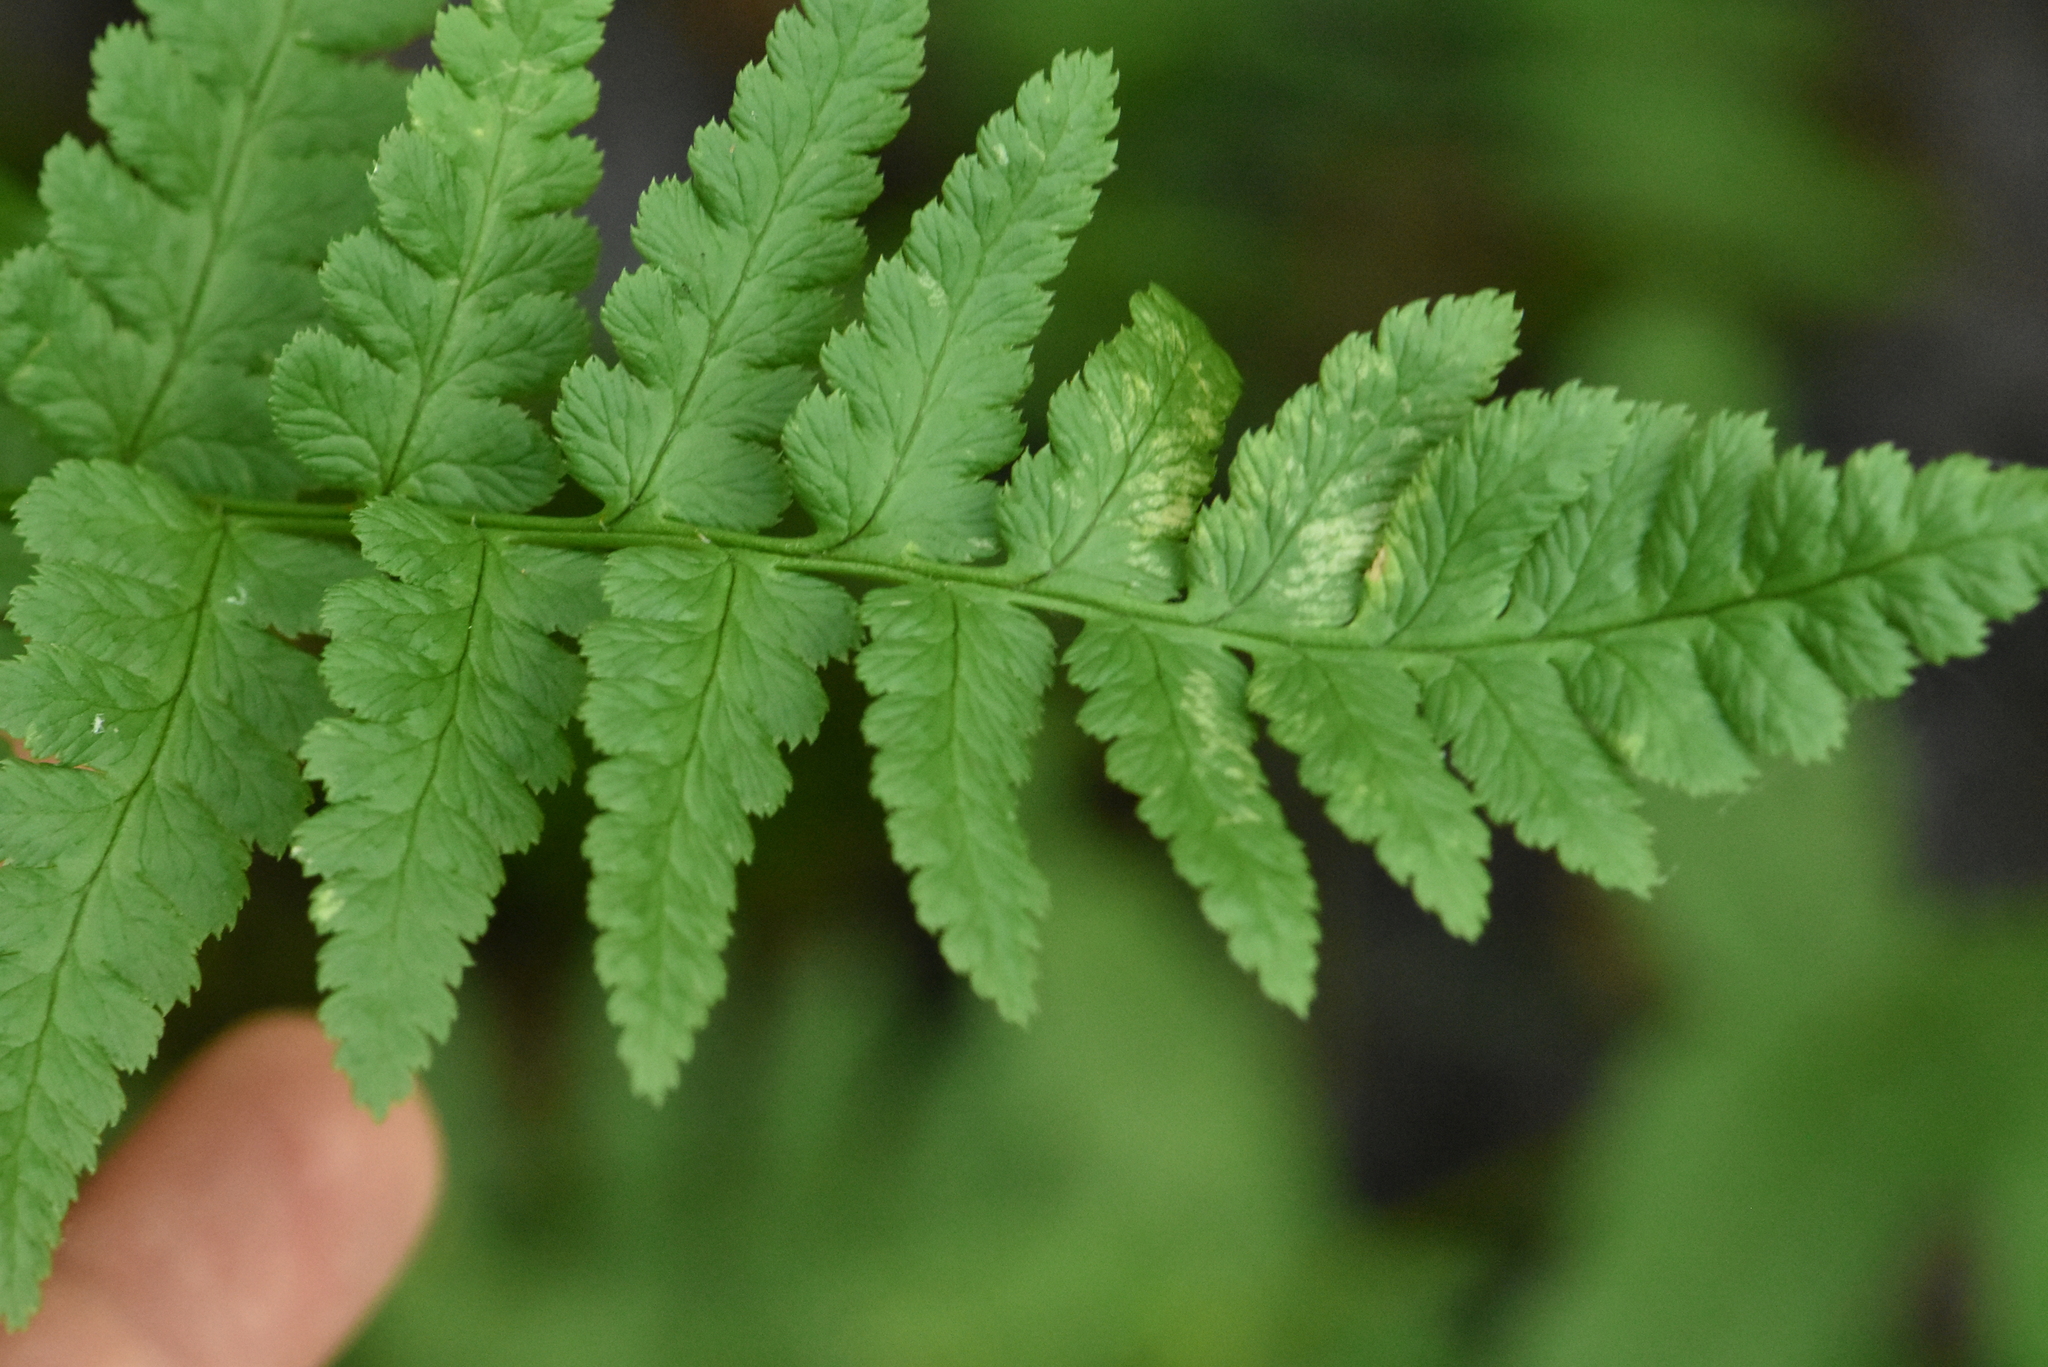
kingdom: Plantae
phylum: Tracheophyta
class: Polypodiopsida
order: Polypodiales
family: Dryopteridaceae
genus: Dryopteris
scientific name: Dryopteris cristata
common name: Crested wood fern
